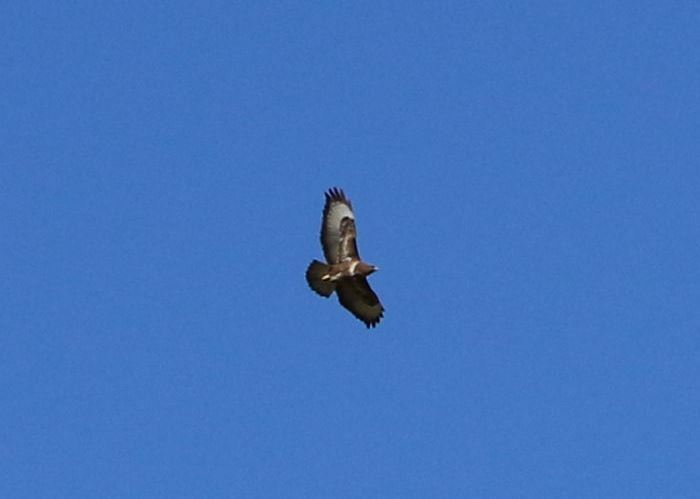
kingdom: Animalia
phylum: Chordata
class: Aves
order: Accipitriformes
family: Accipitridae
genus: Buteo
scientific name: Buteo buteo
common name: Common buzzard
